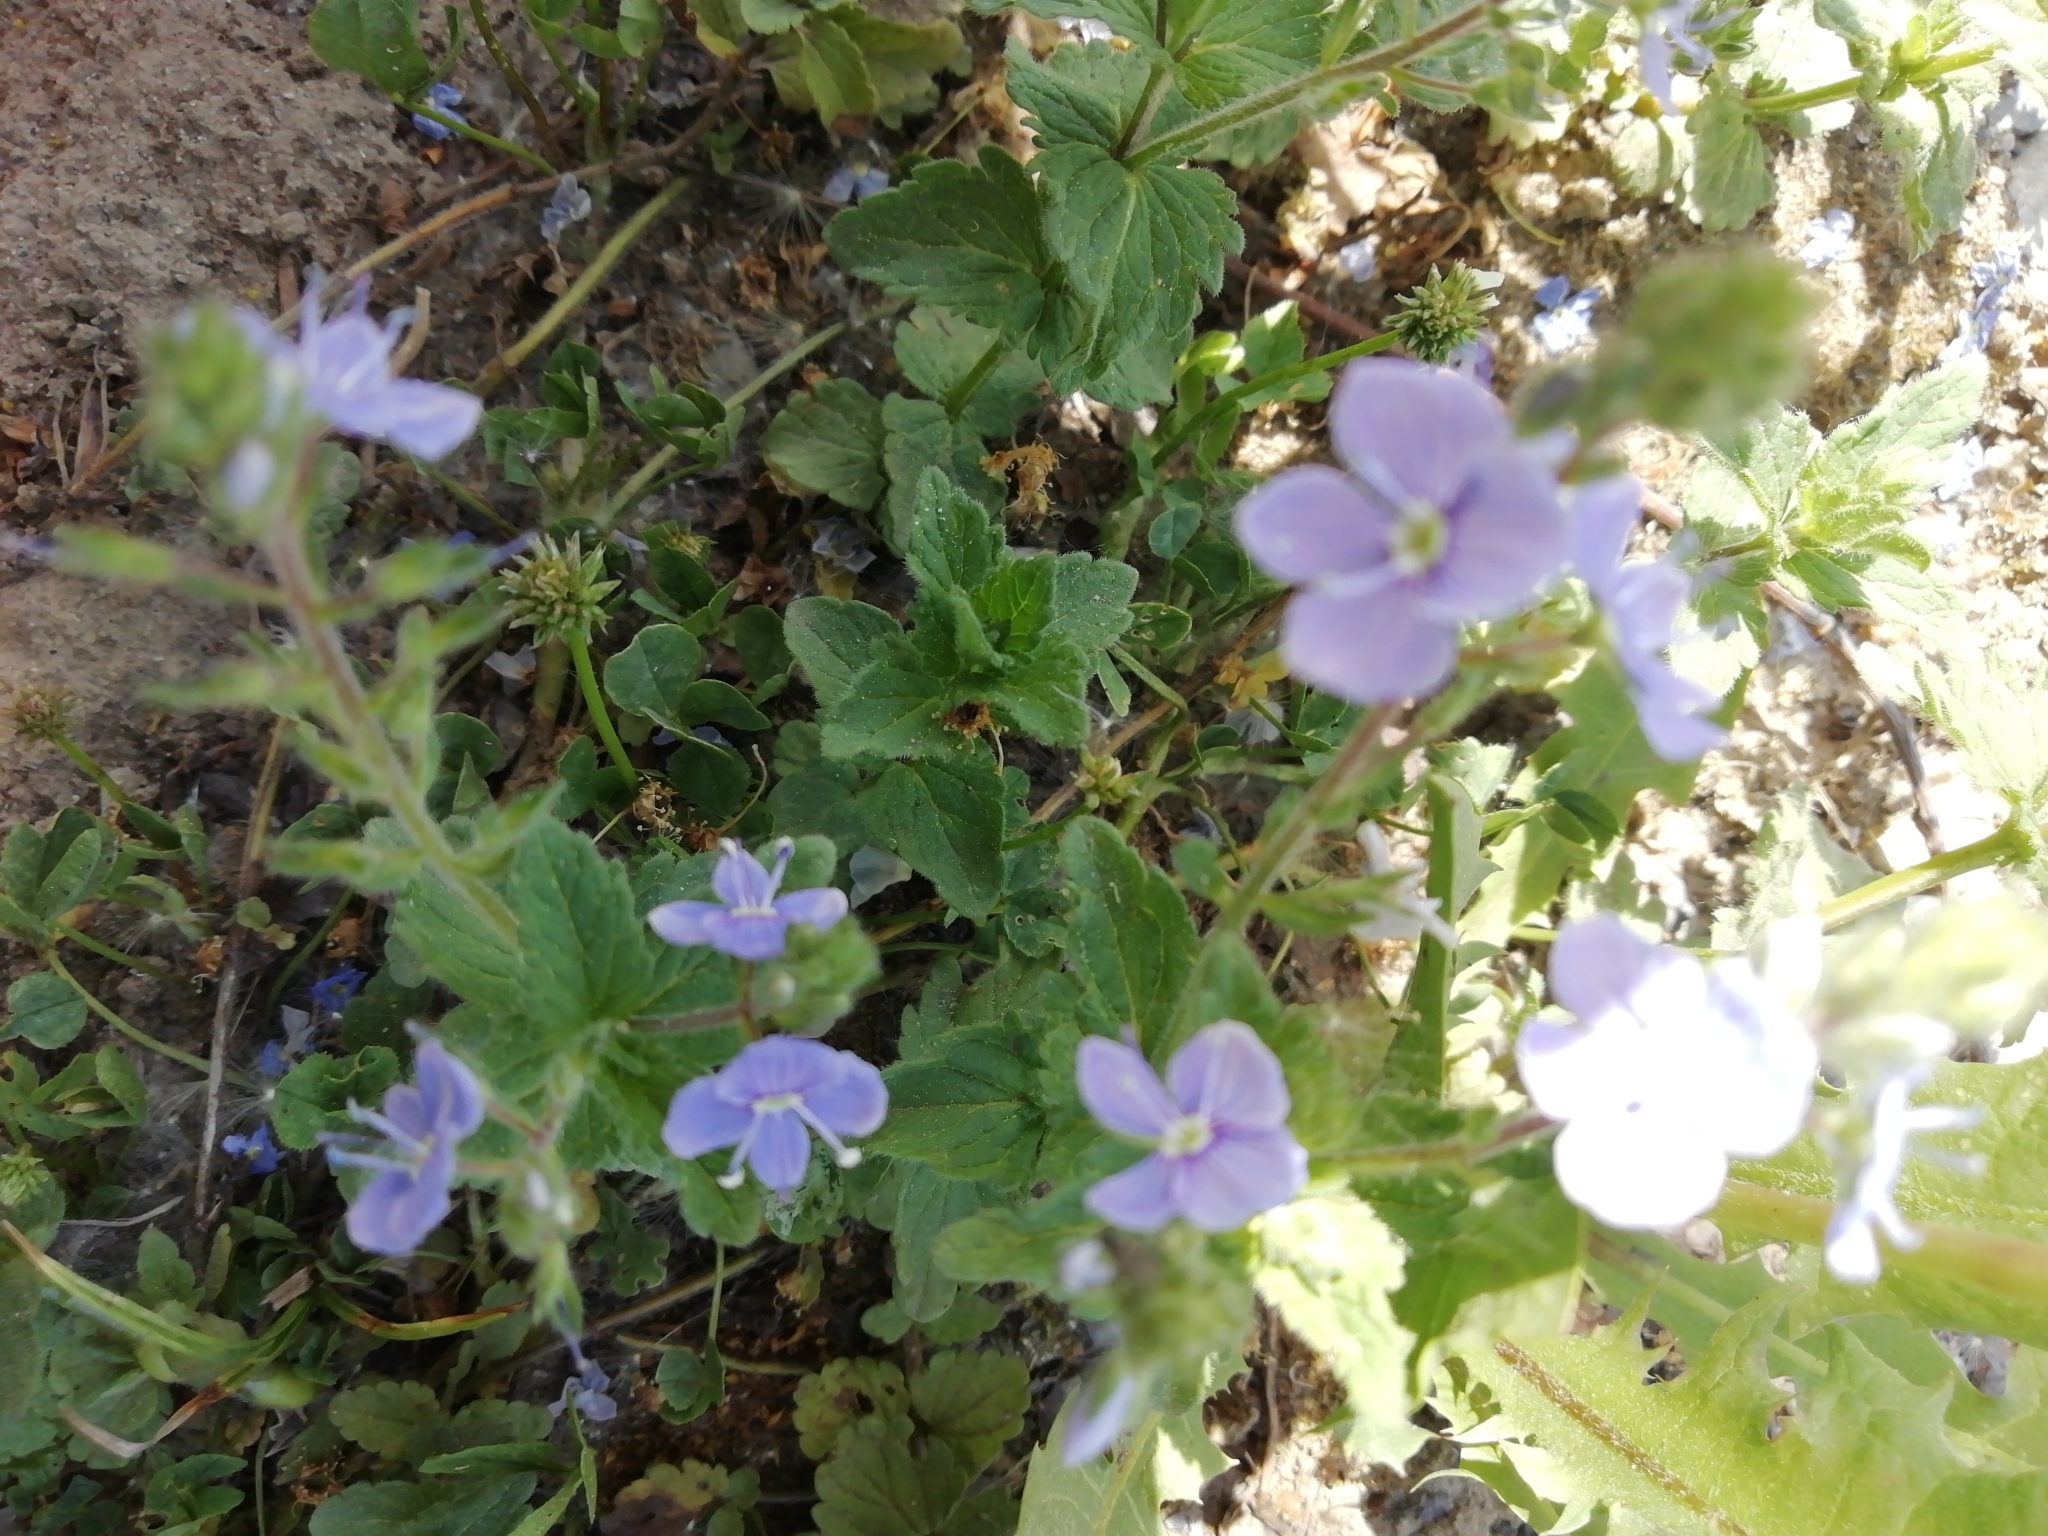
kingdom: Plantae
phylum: Tracheophyta
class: Magnoliopsida
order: Lamiales
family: Plantaginaceae
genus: Veronica
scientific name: Veronica chamaedrys
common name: Germander speedwell
